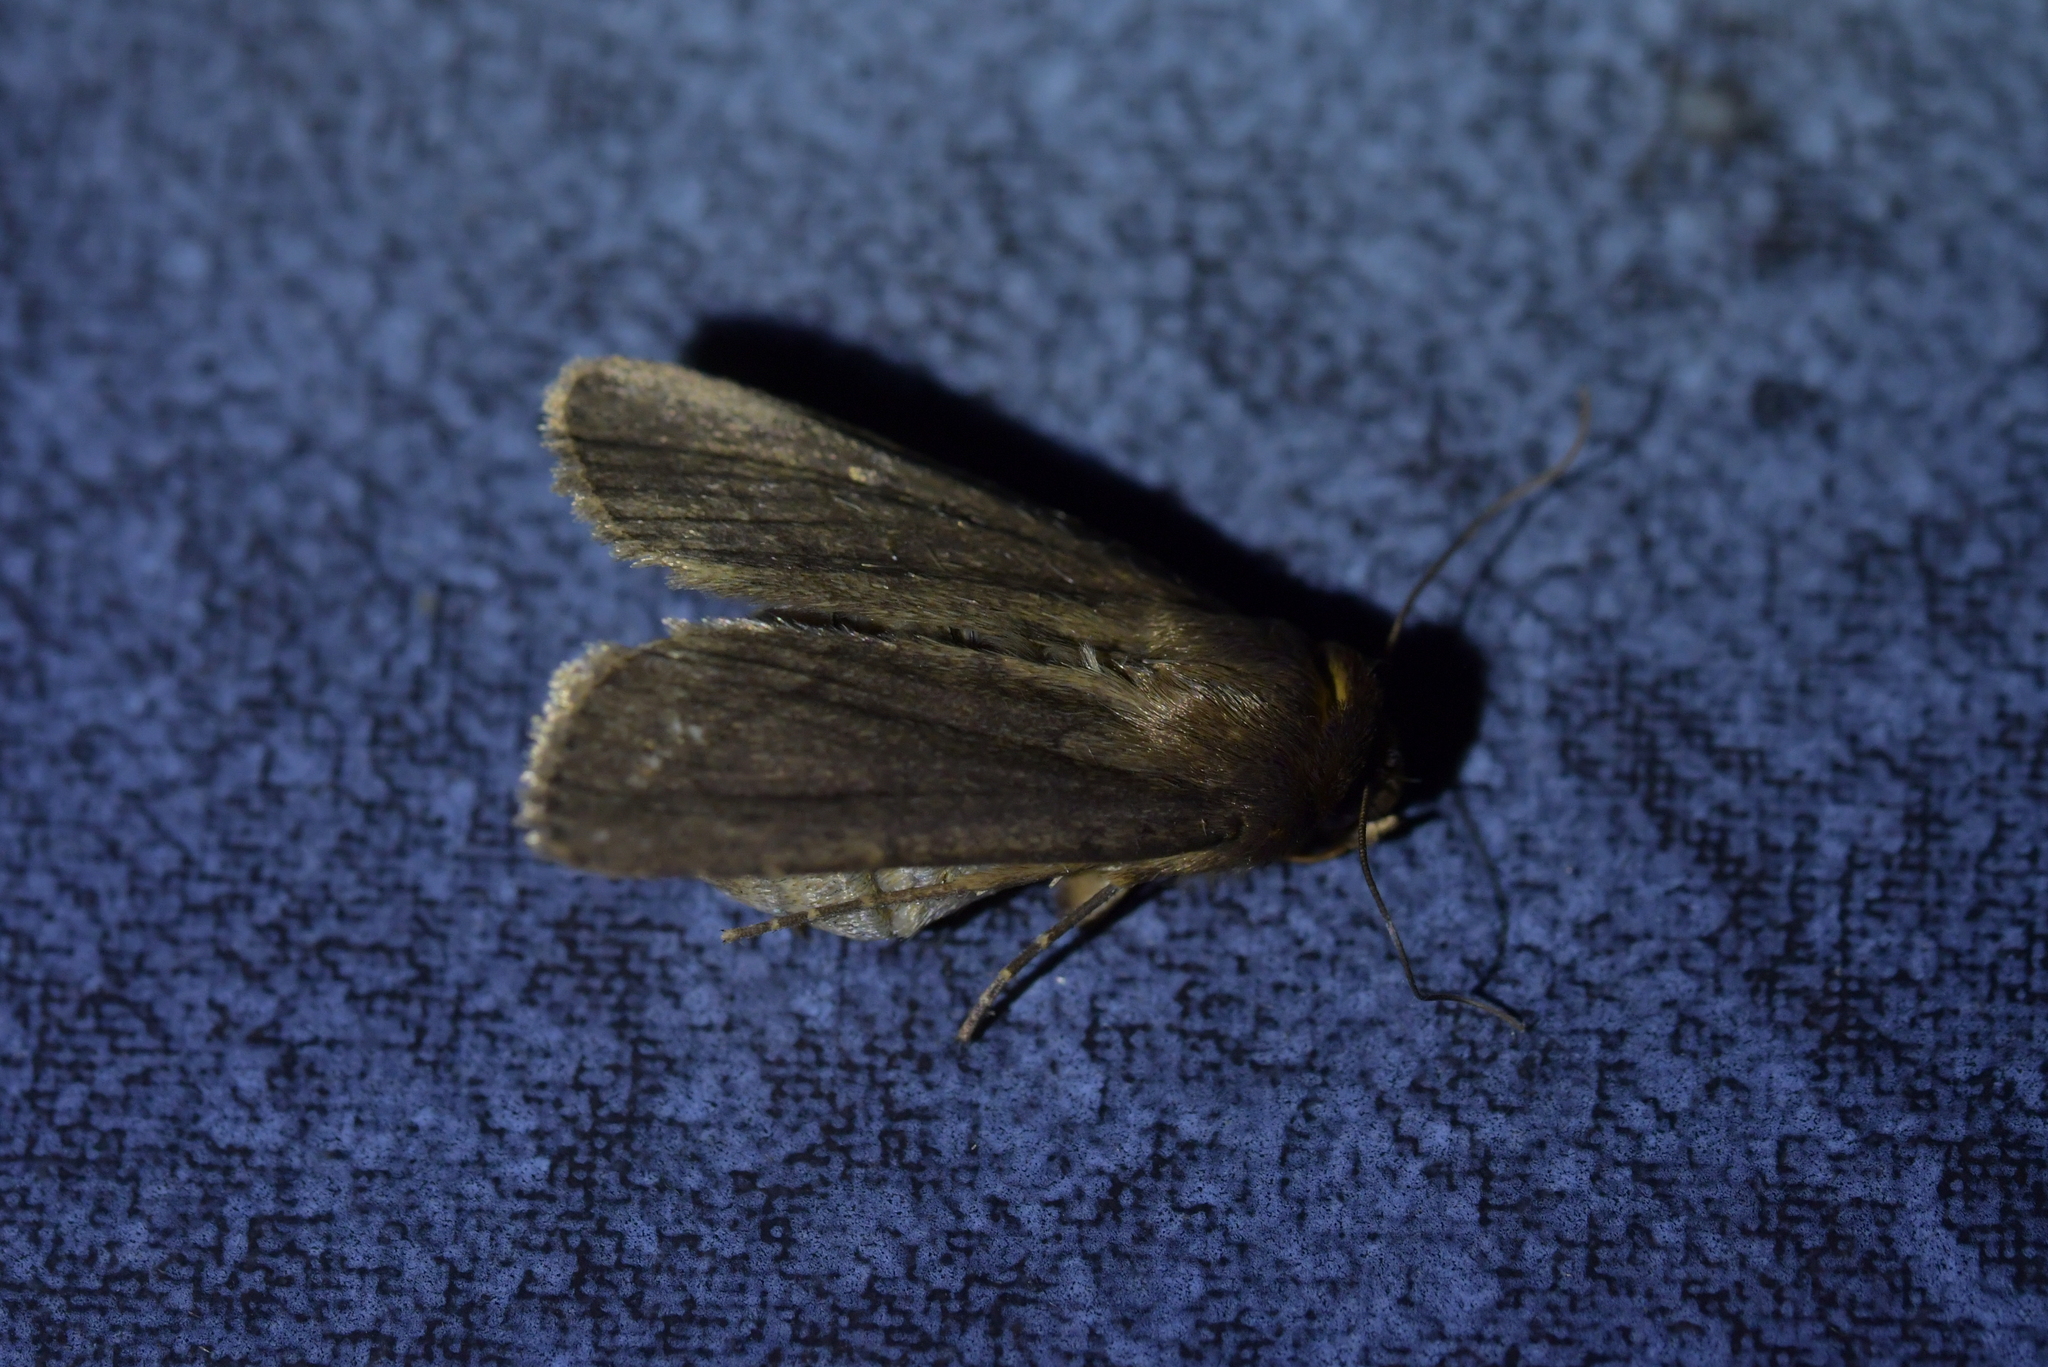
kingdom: Animalia
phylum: Arthropoda
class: Insecta
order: Lepidoptera
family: Noctuidae
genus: Bityla
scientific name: Bityla defigurata
